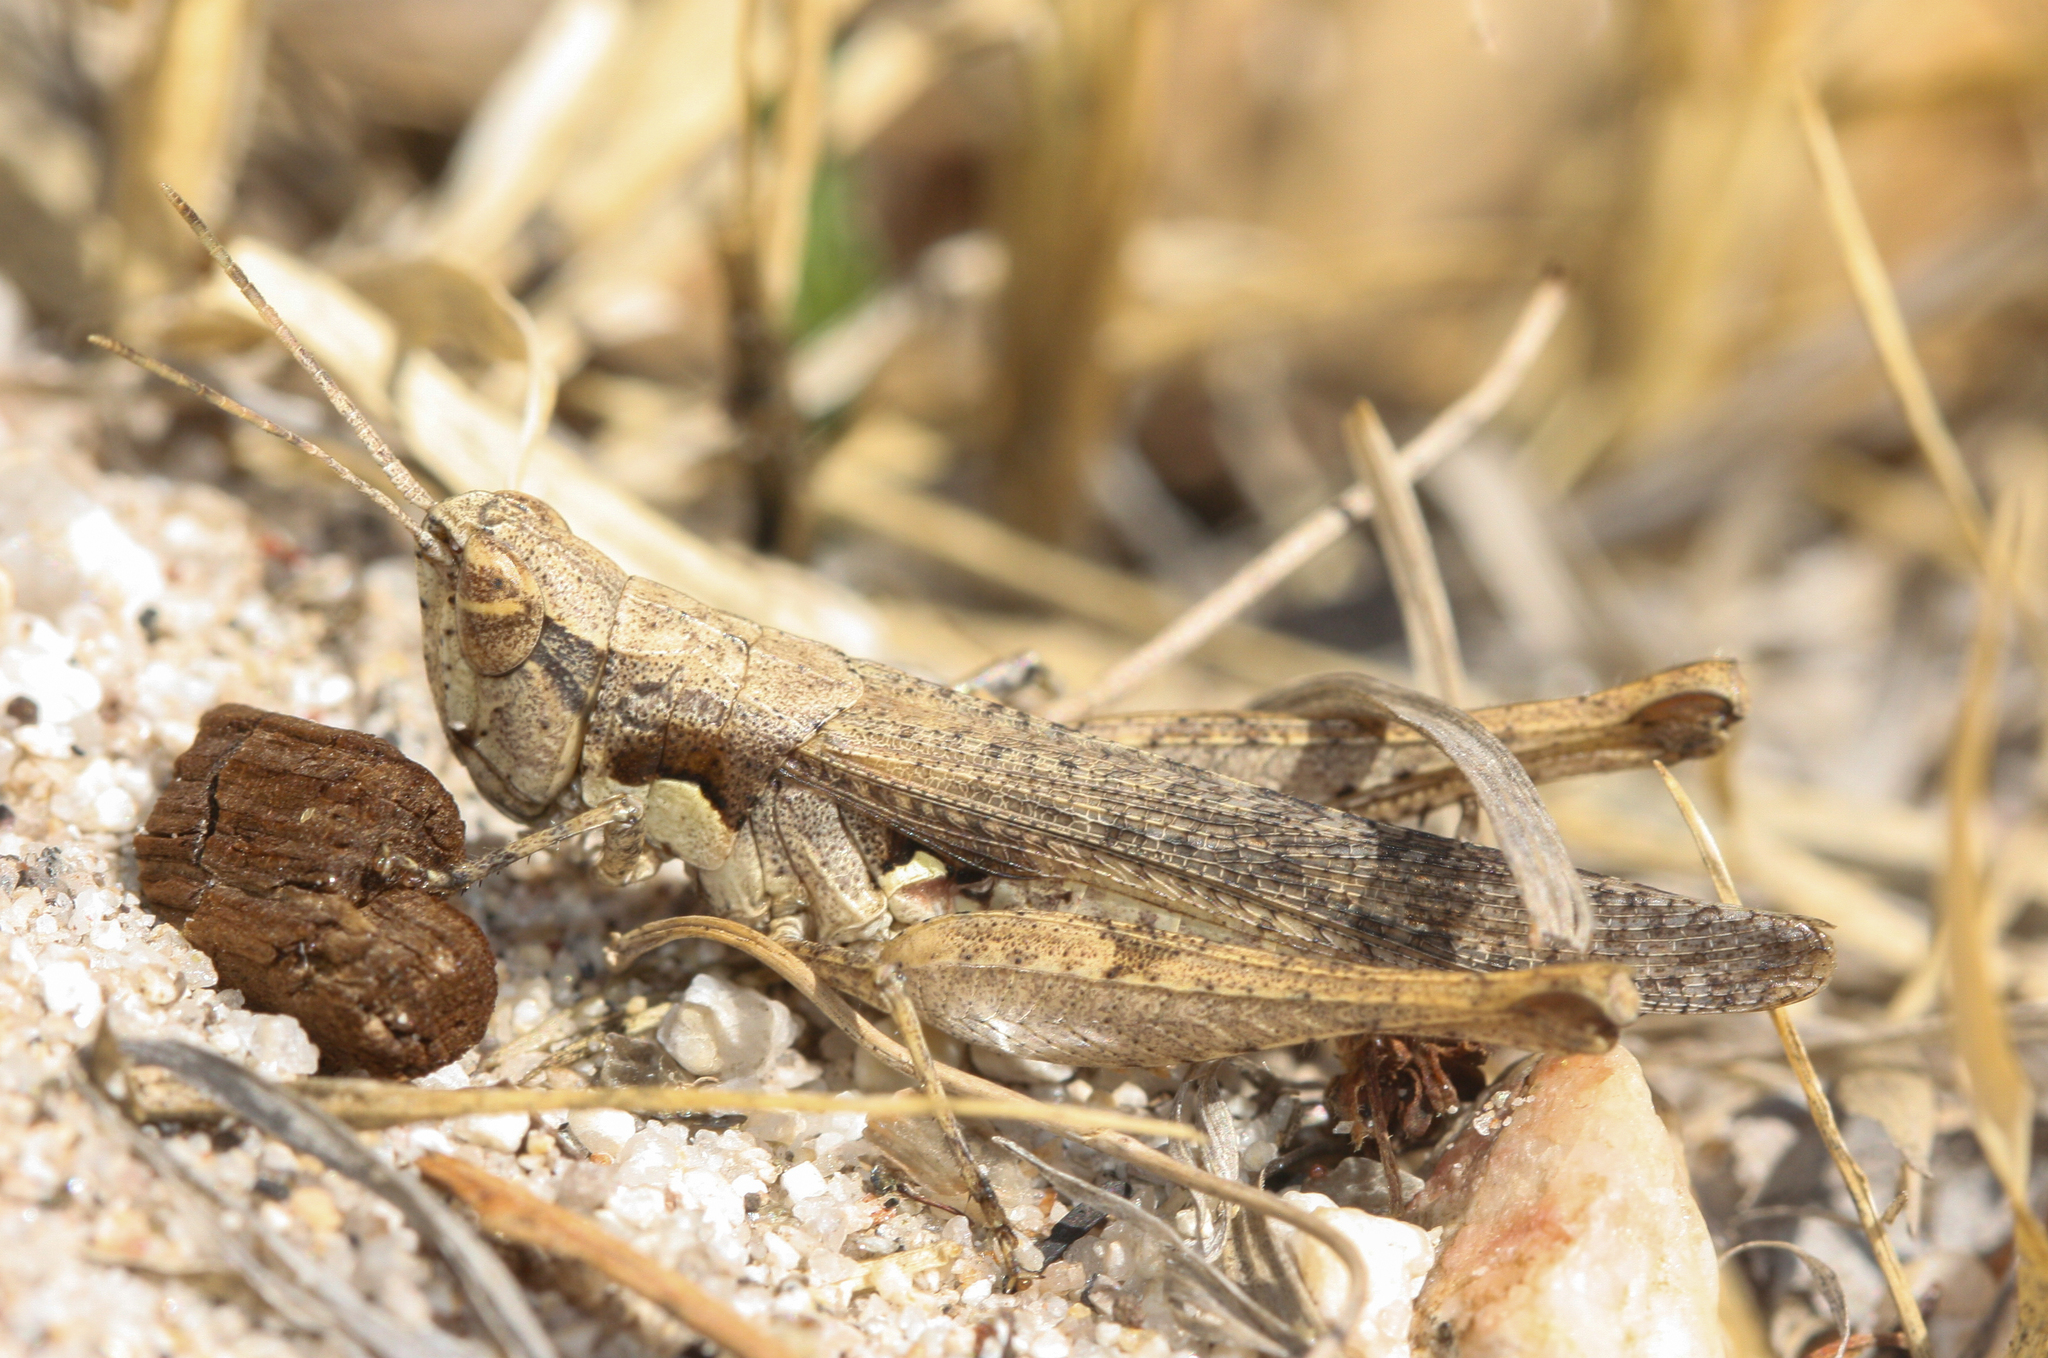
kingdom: Animalia
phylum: Arthropoda
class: Insecta
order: Orthoptera
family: Acrididae
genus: Horesidotes
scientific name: Horesidotes cinereus
